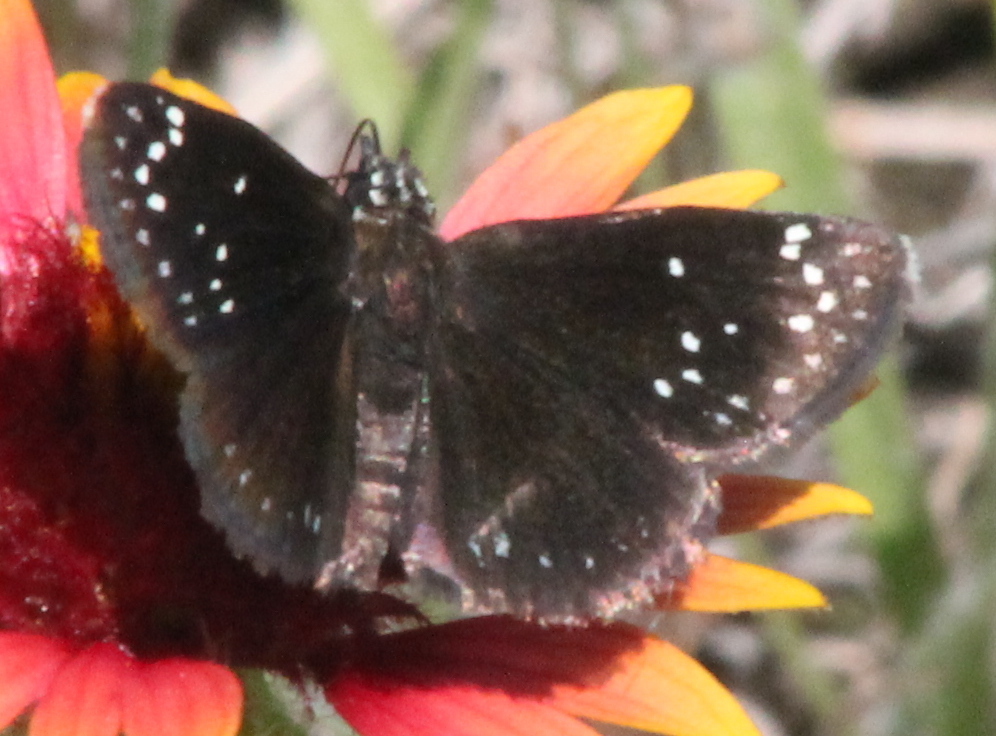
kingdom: Animalia
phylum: Arthropoda
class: Insecta
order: Lepidoptera
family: Hesperiidae
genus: Pholisora
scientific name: Pholisora catullus
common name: Common sootywing
